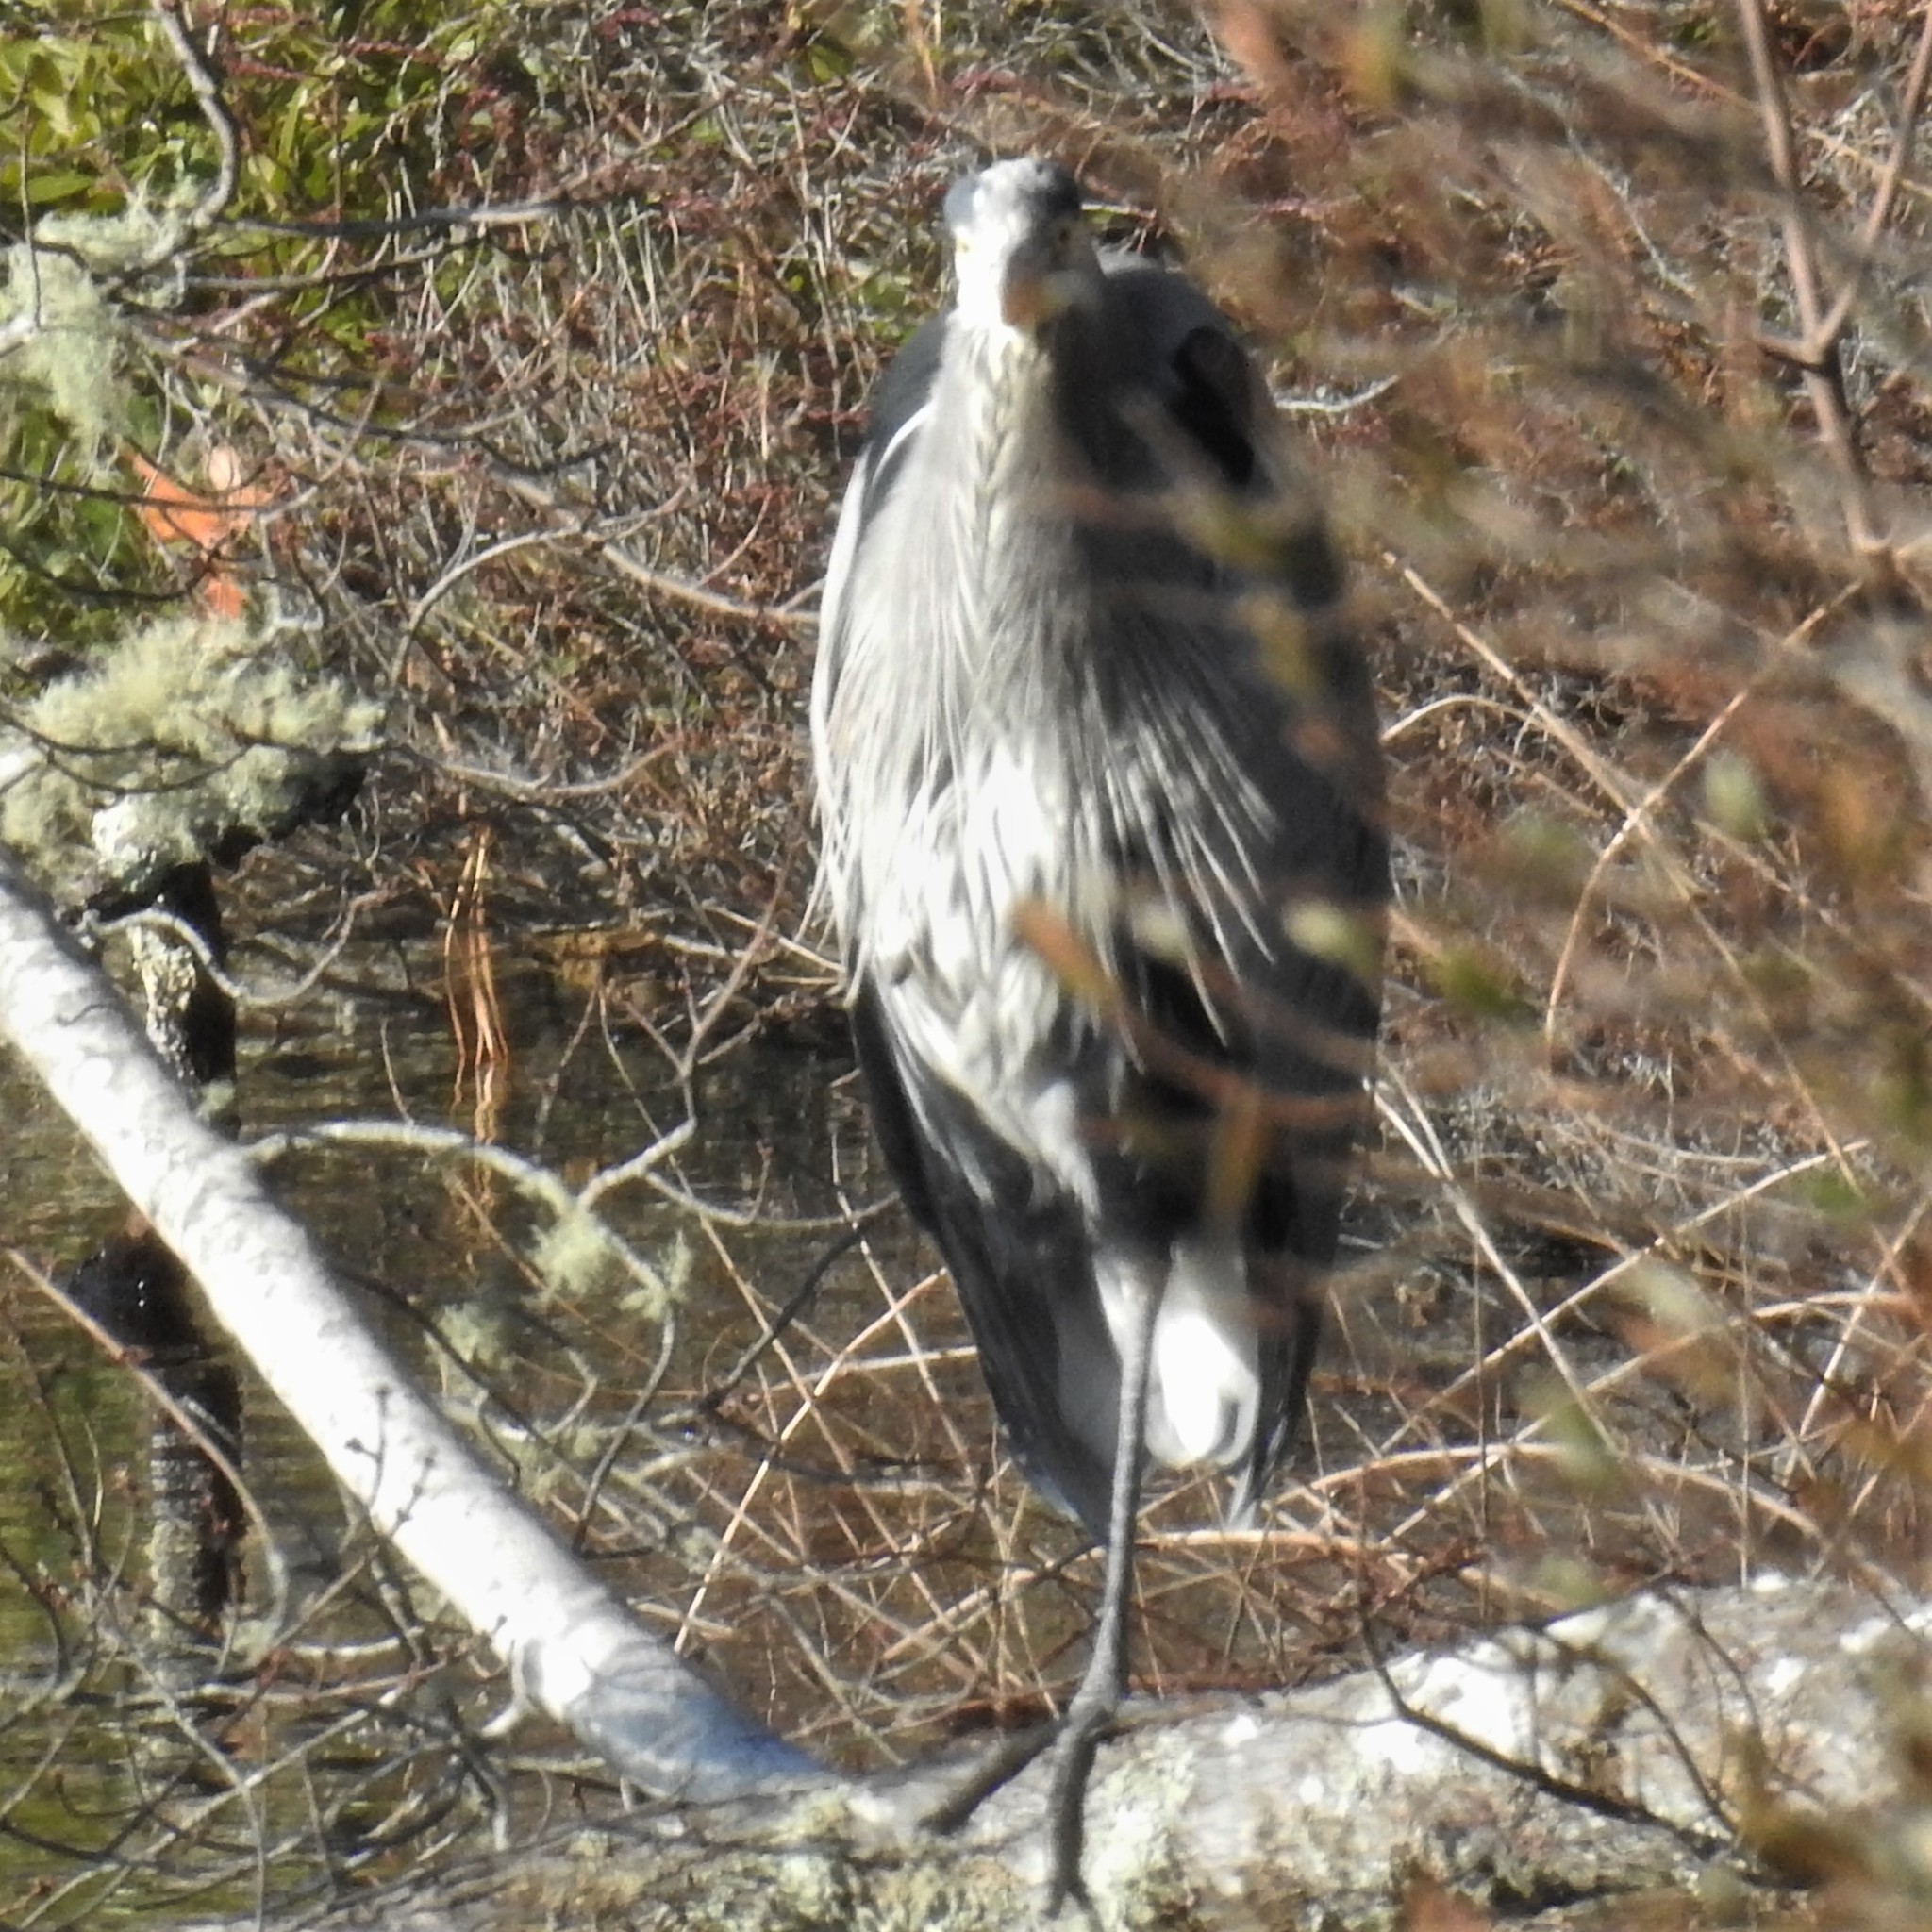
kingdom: Animalia
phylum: Chordata
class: Aves
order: Pelecaniformes
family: Ardeidae
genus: Ardea
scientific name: Ardea herodias
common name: Great blue heron
